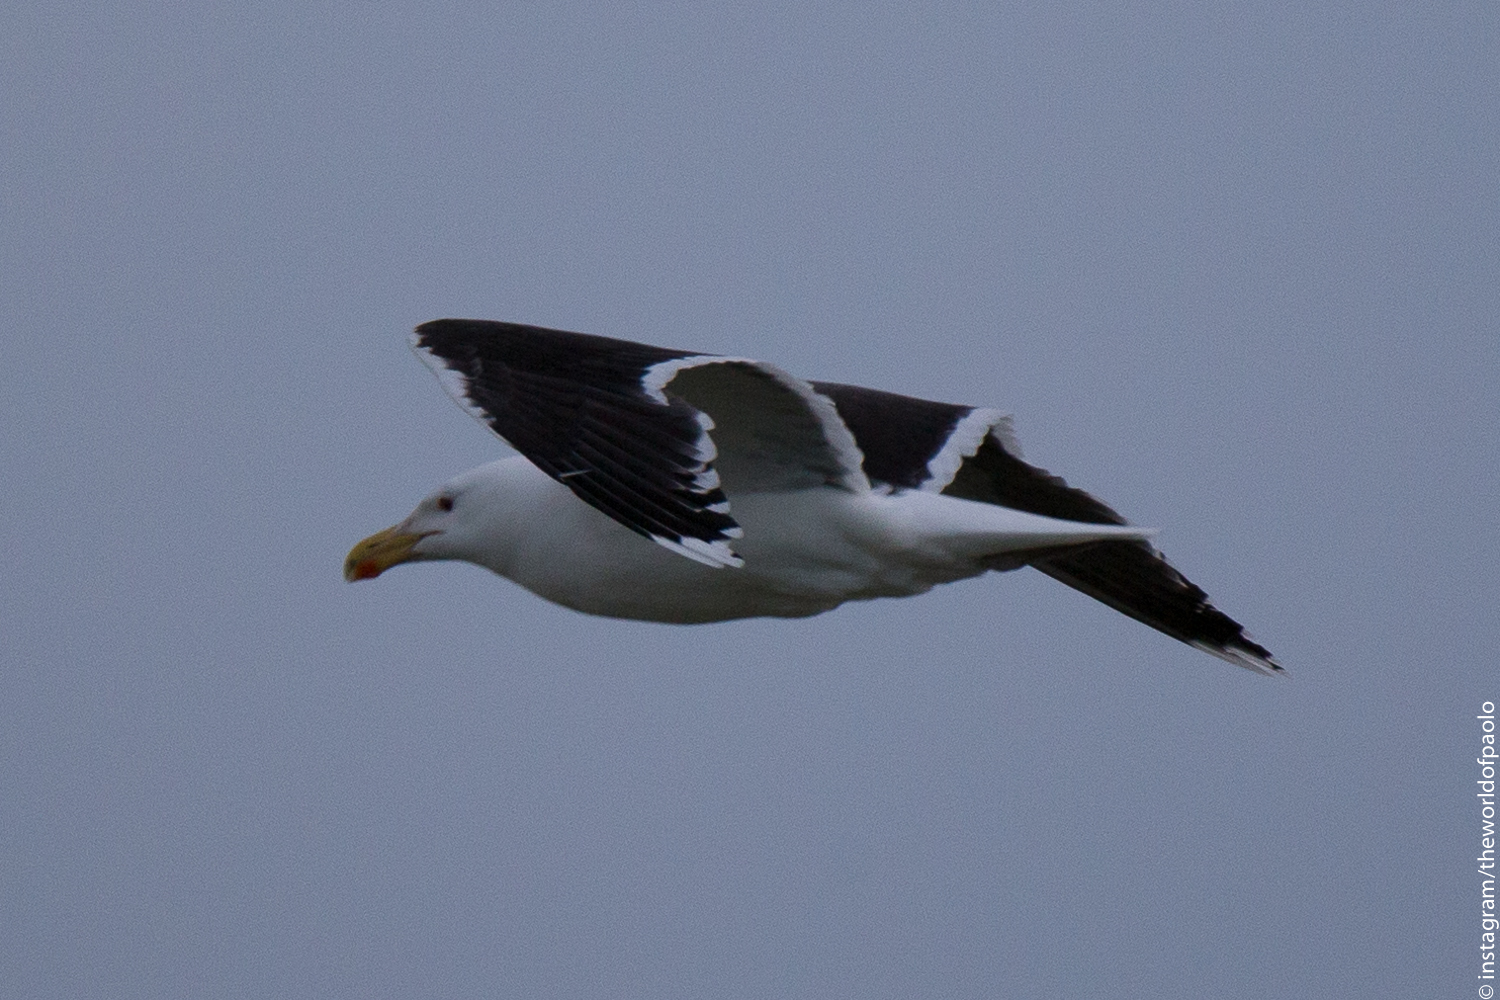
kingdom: Animalia
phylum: Chordata
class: Aves
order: Charadriiformes
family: Laridae
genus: Larus
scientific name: Larus marinus
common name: Great black-backed gull
